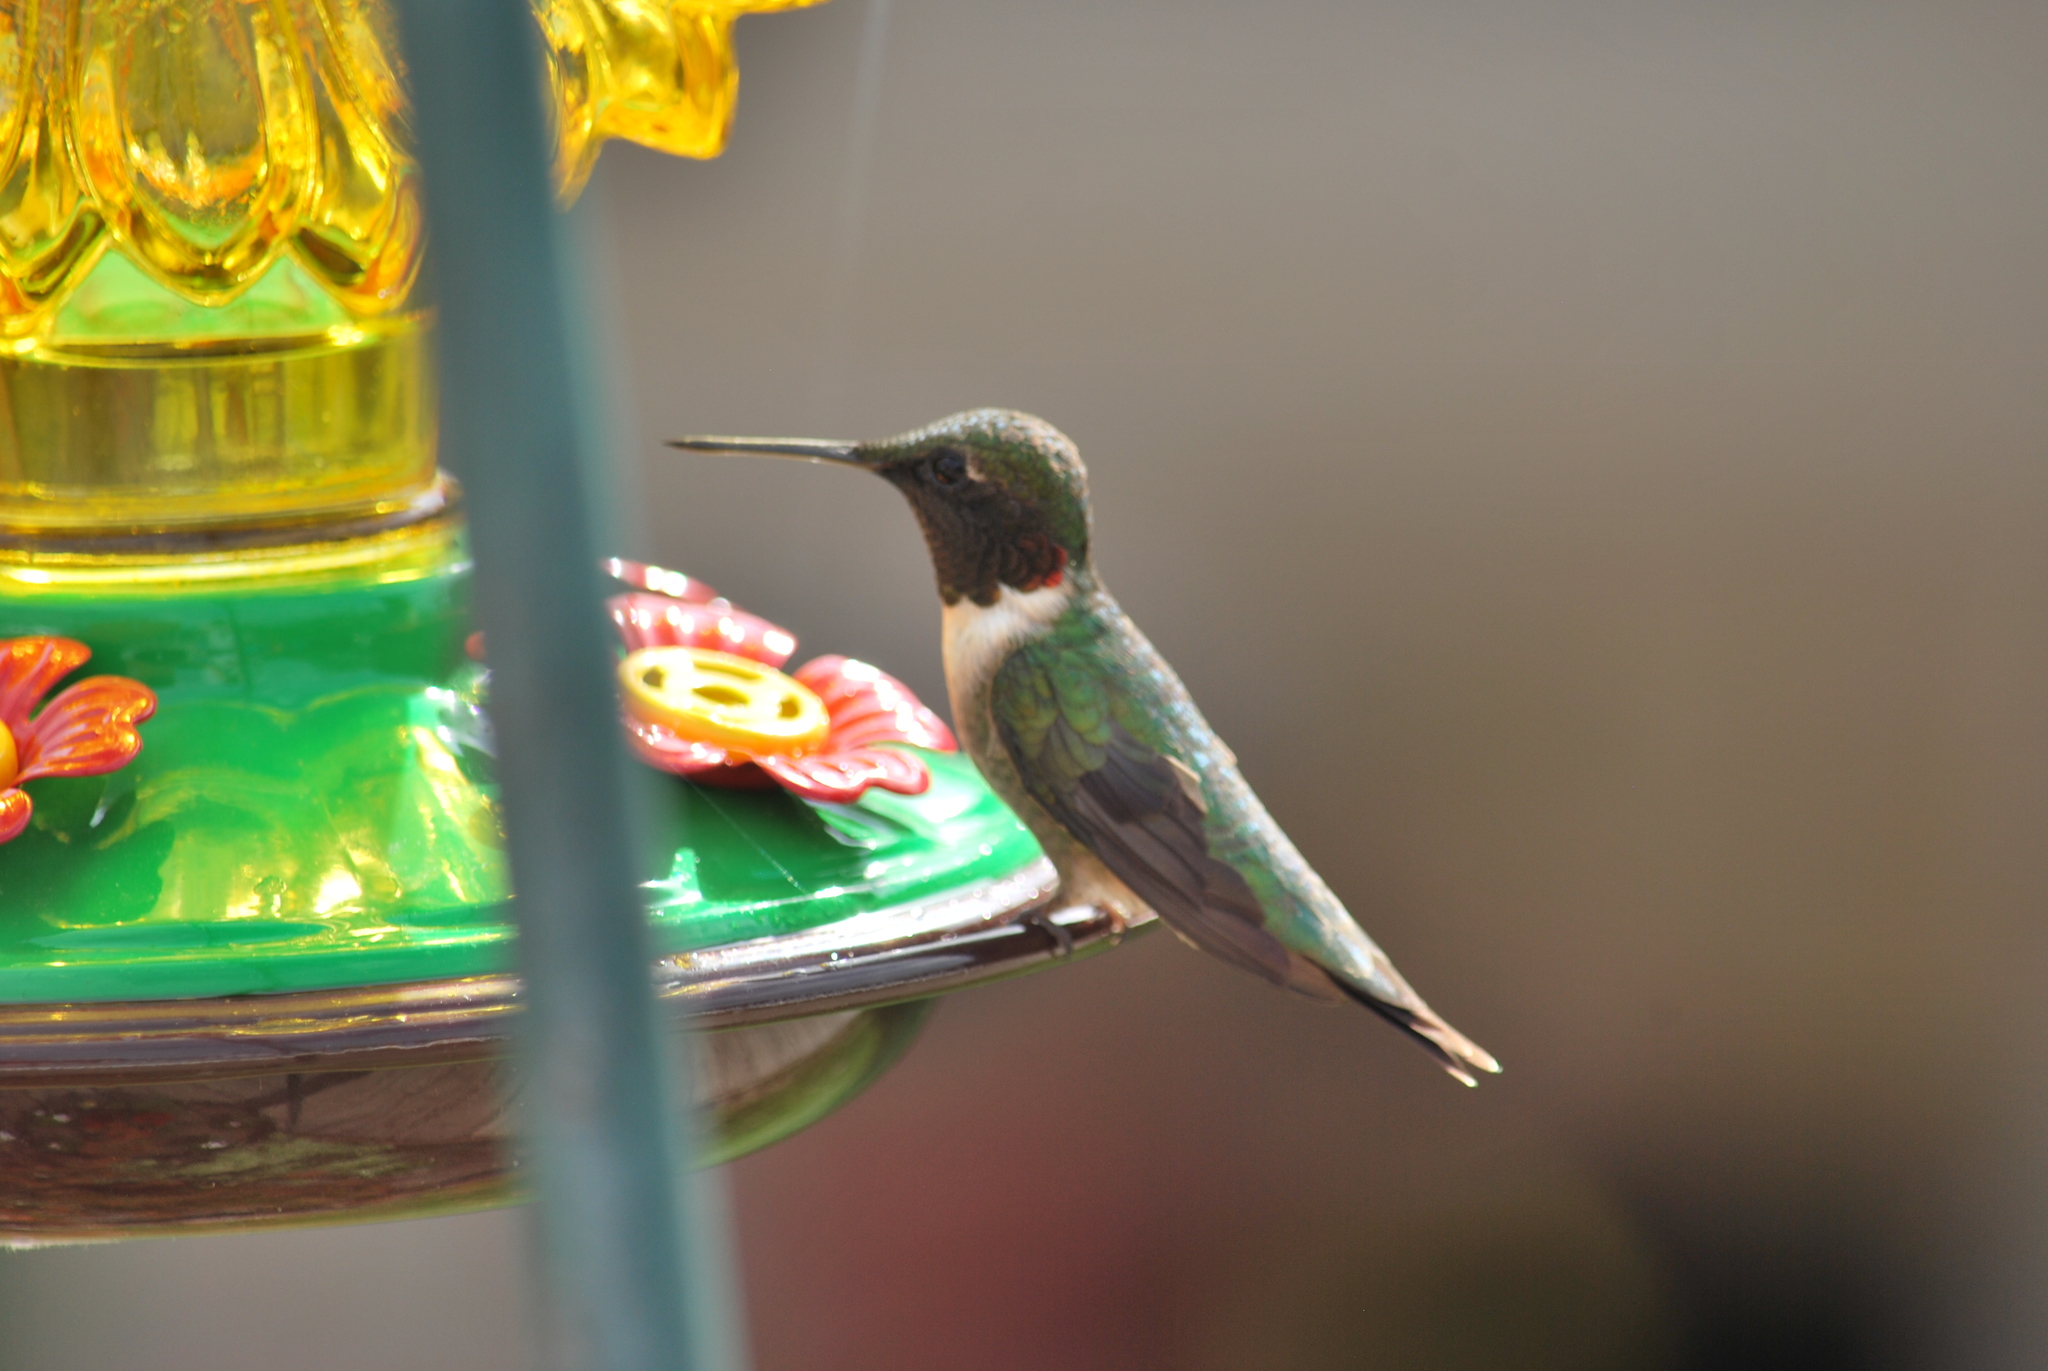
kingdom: Animalia
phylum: Chordata
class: Aves
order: Apodiformes
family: Trochilidae
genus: Archilochus
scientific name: Archilochus colubris
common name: Ruby-throated hummingbird
